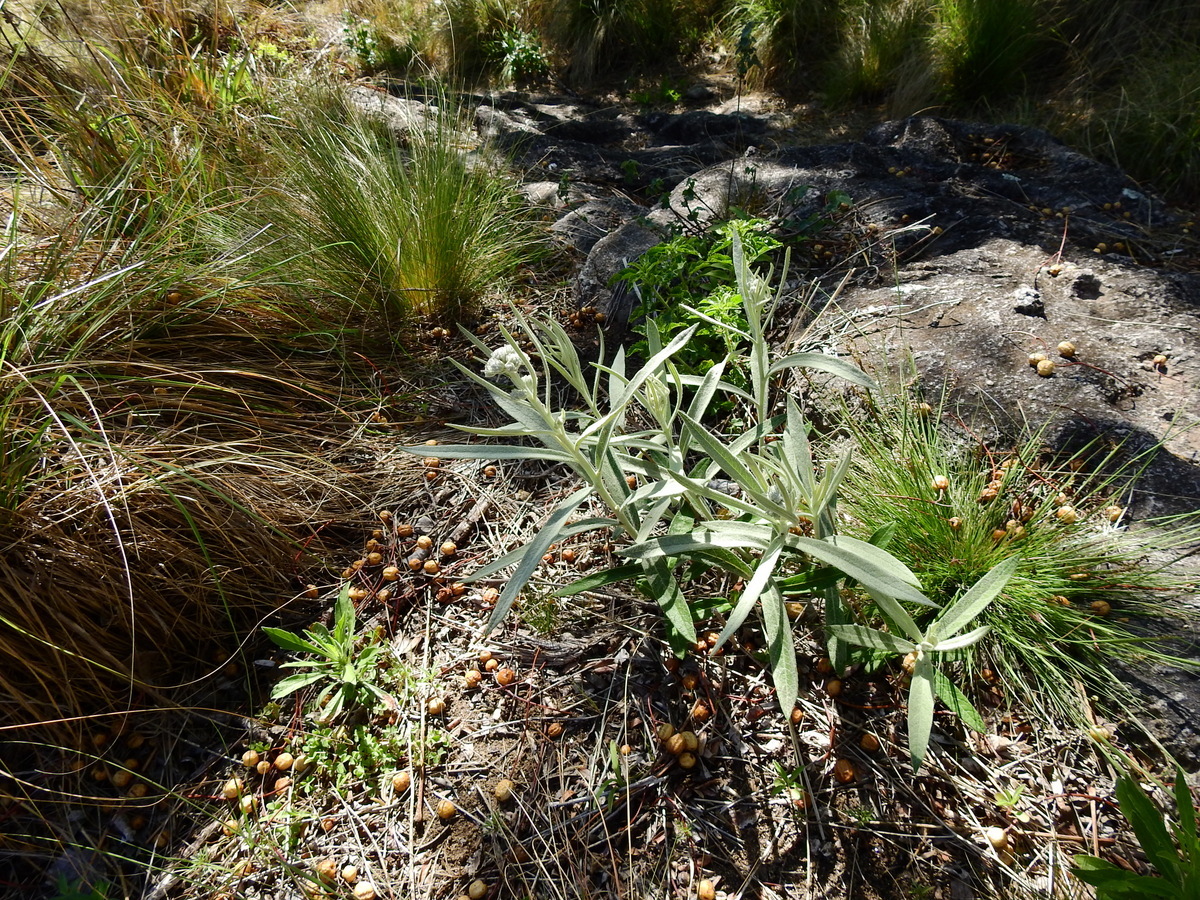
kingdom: Plantae
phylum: Tracheophyta
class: Magnoliopsida
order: Asterales
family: Asteraceae
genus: Lessingianthus
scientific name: Lessingianthus mollissimus
